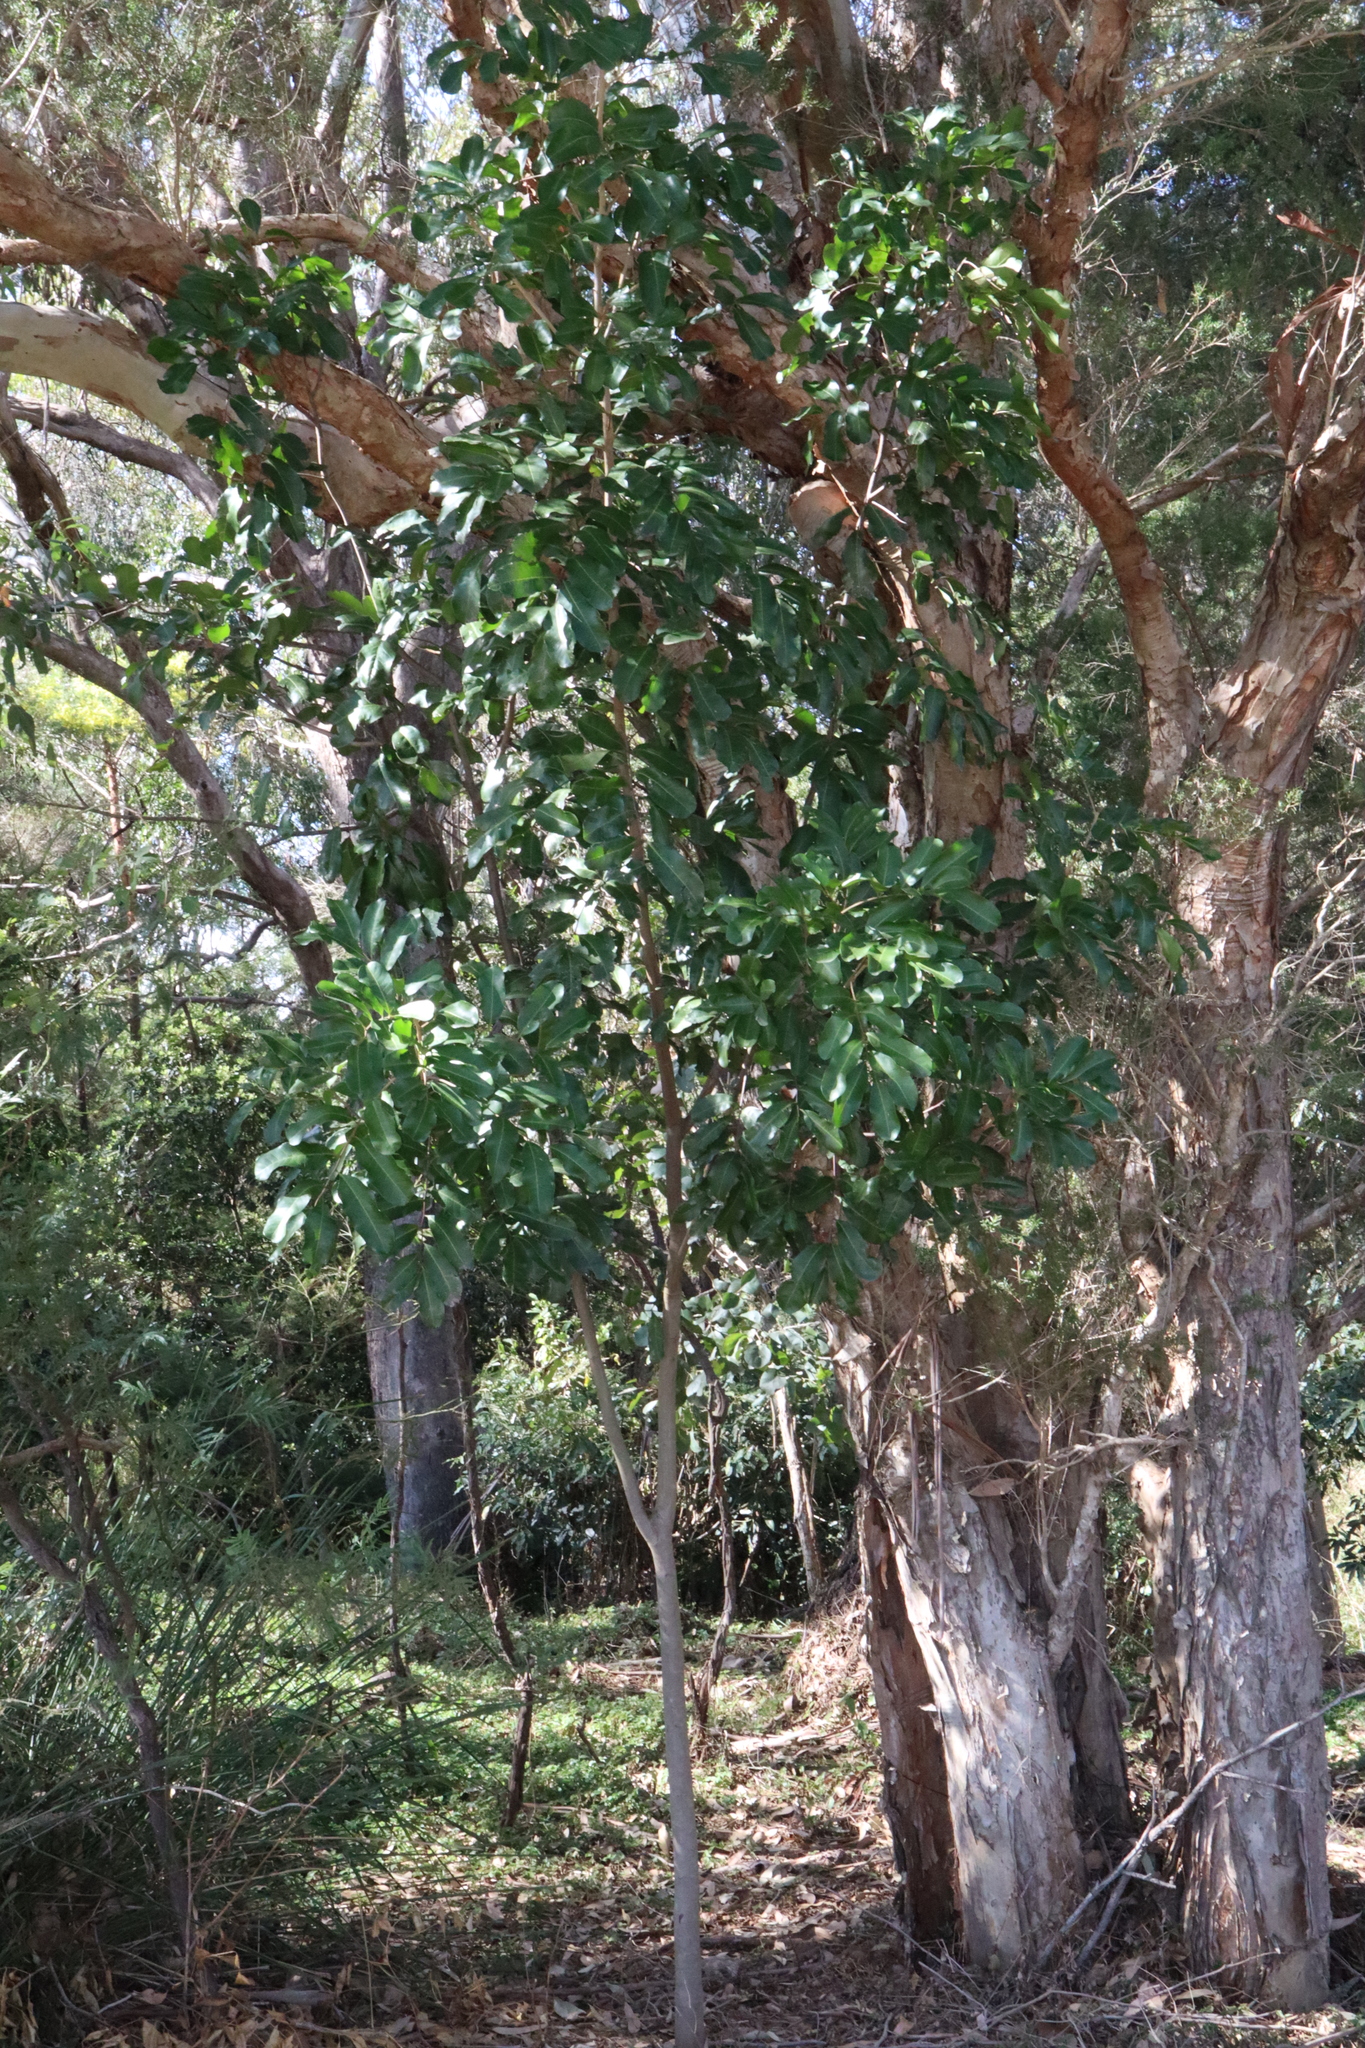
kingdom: Plantae
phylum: Tracheophyta
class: Magnoliopsida
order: Sapindales
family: Sapindaceae
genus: Cupaniopsis
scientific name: Cupaniopsis anacardioides
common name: Carrotwood
